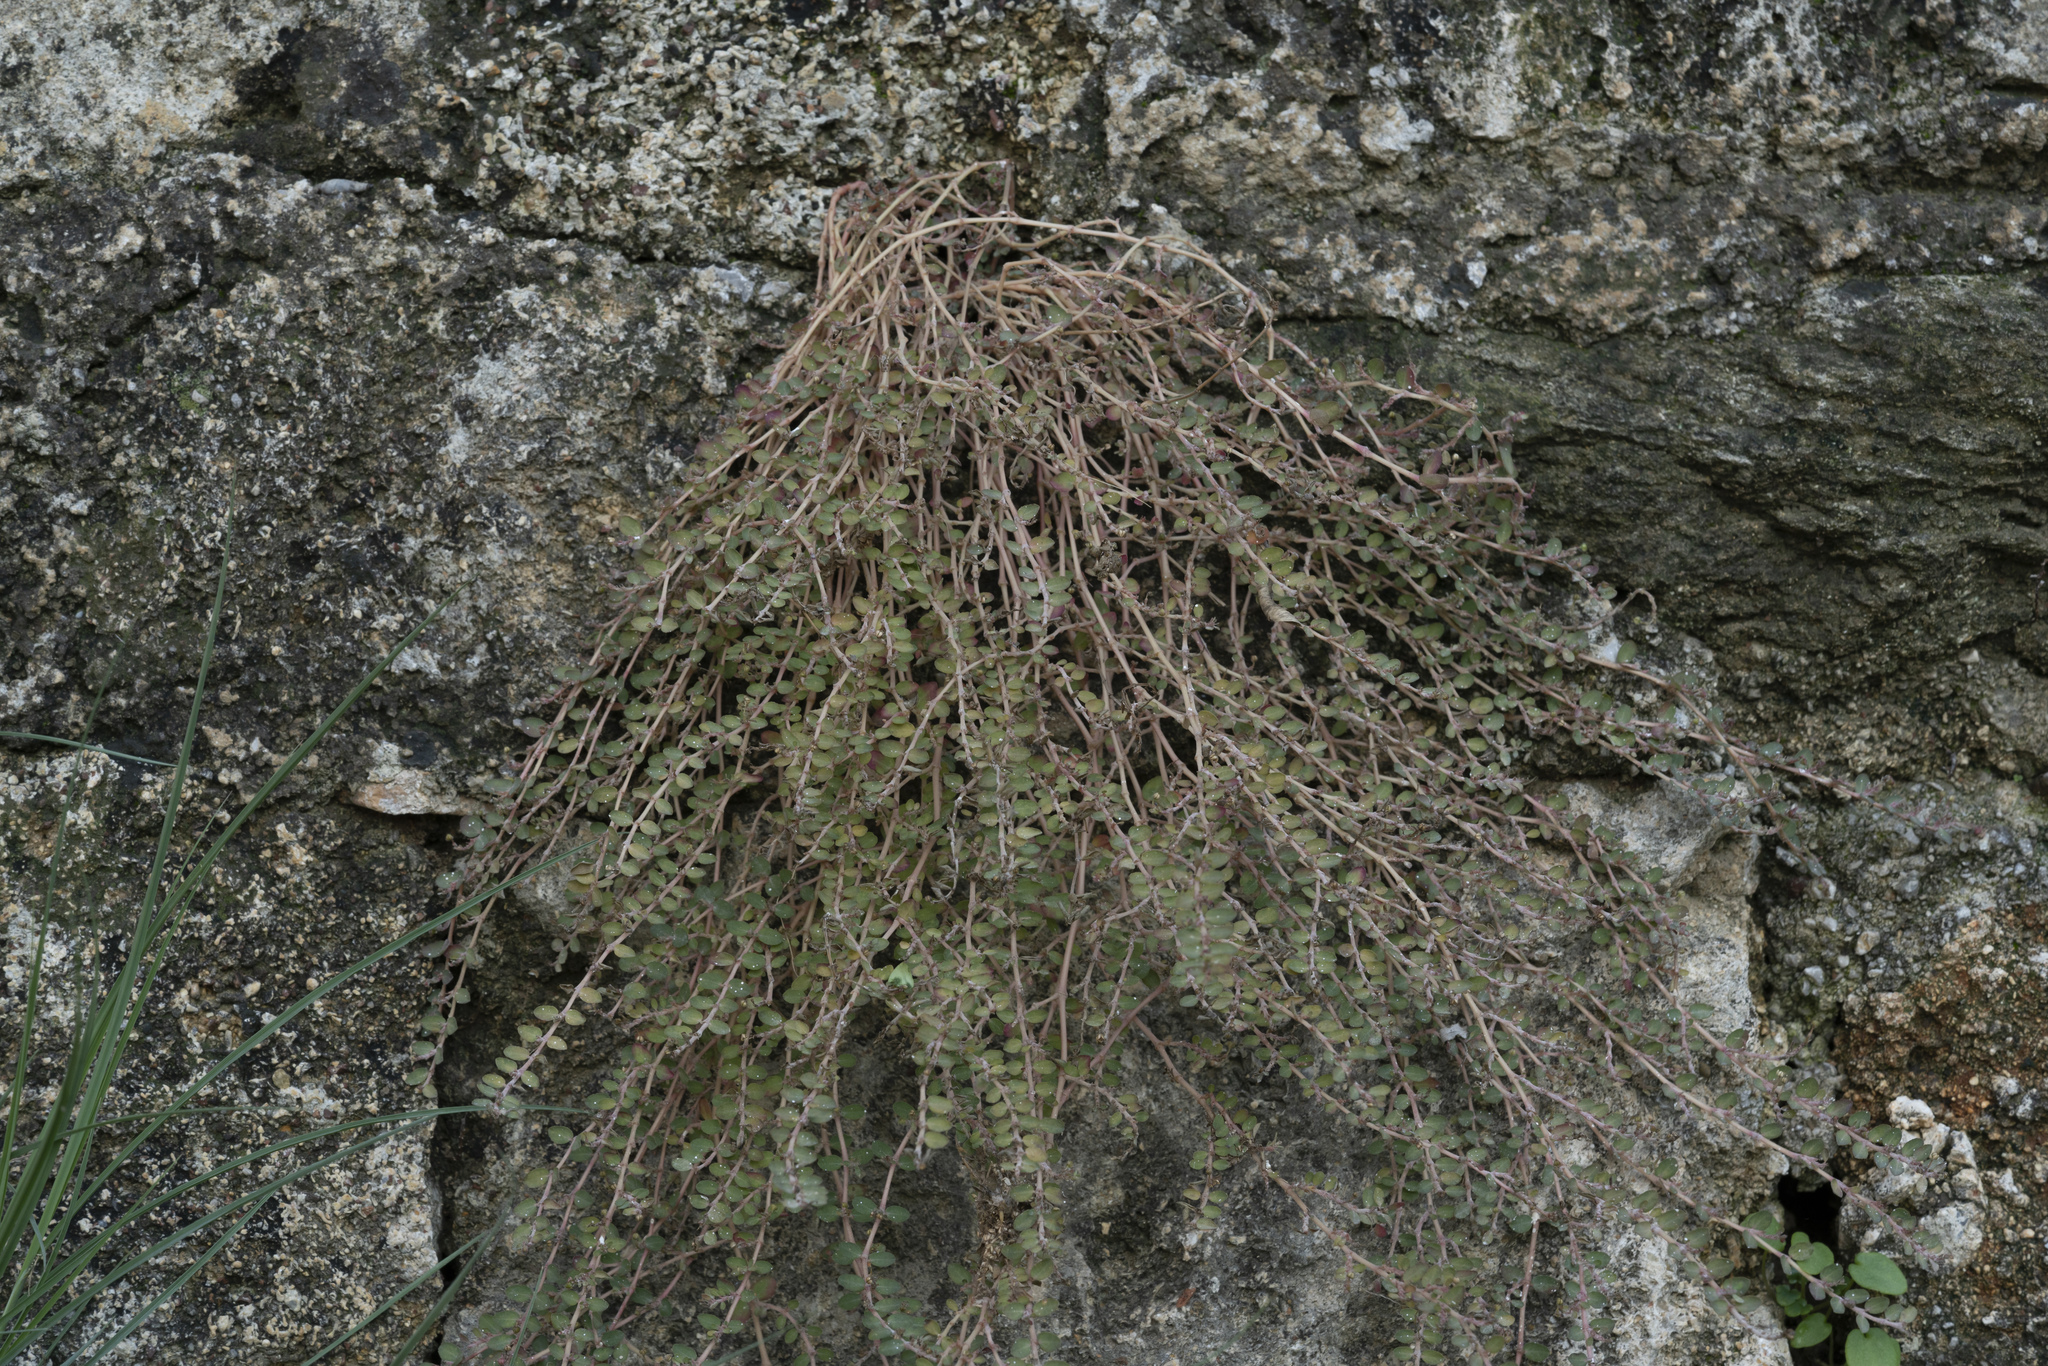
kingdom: Plantae
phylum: Tracheophyta
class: Magnoliopsida
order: Malpighiales
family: Euphorbiaceae
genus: Euphorbia
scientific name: Euphorbia prostrata
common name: Prostrate sandmat
